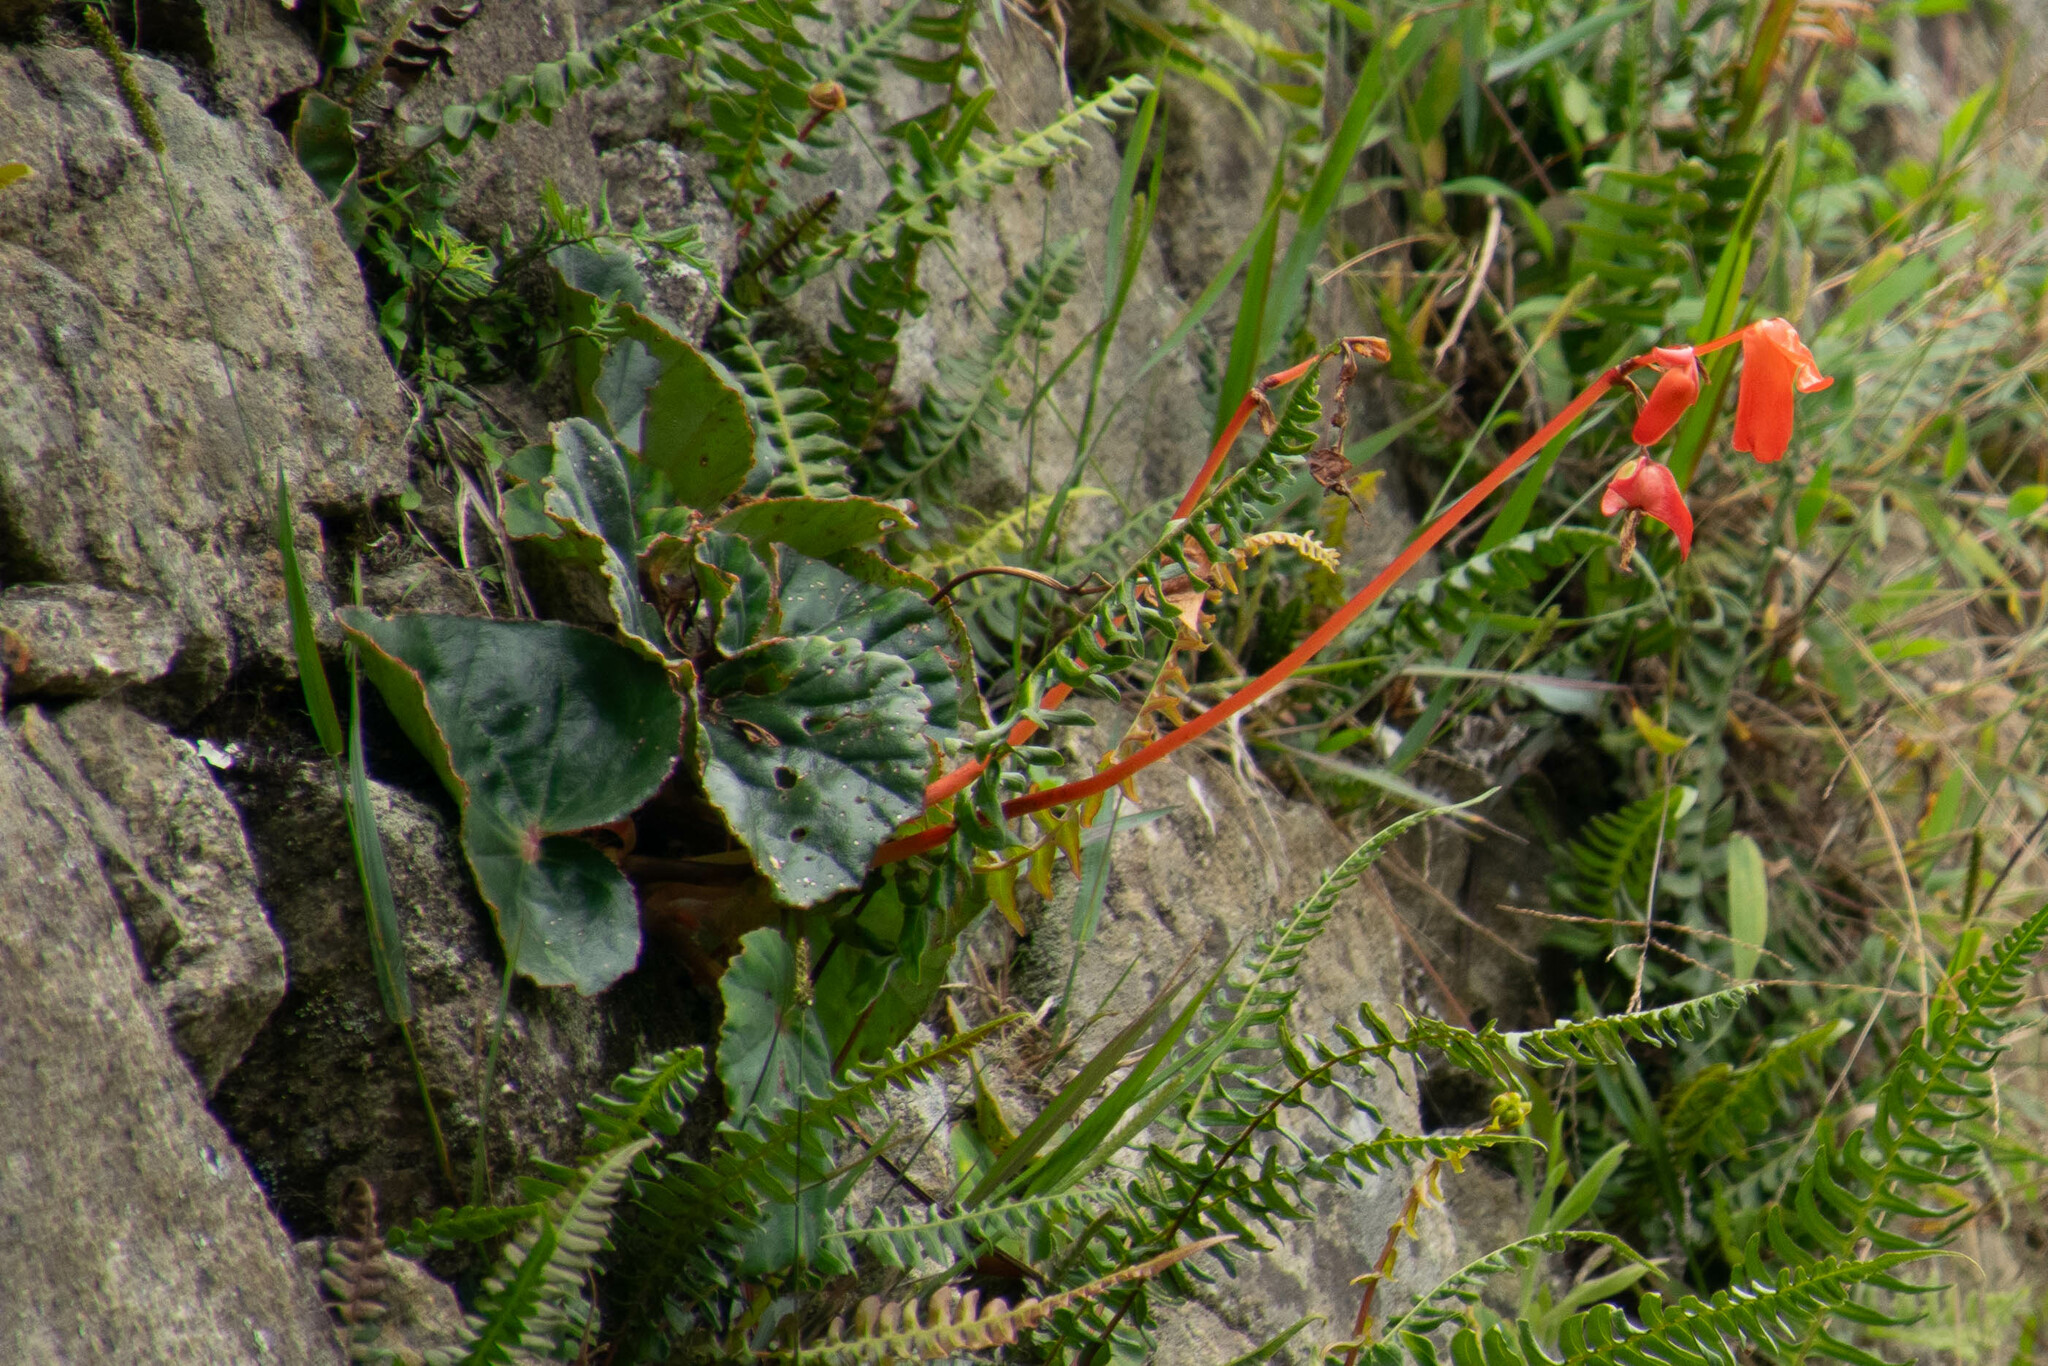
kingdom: Plantae
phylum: Tracheophyta
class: Magnoliopsida
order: Cucurbitales
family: Begoniaceae
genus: Begonia
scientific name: Begonia veitchii
